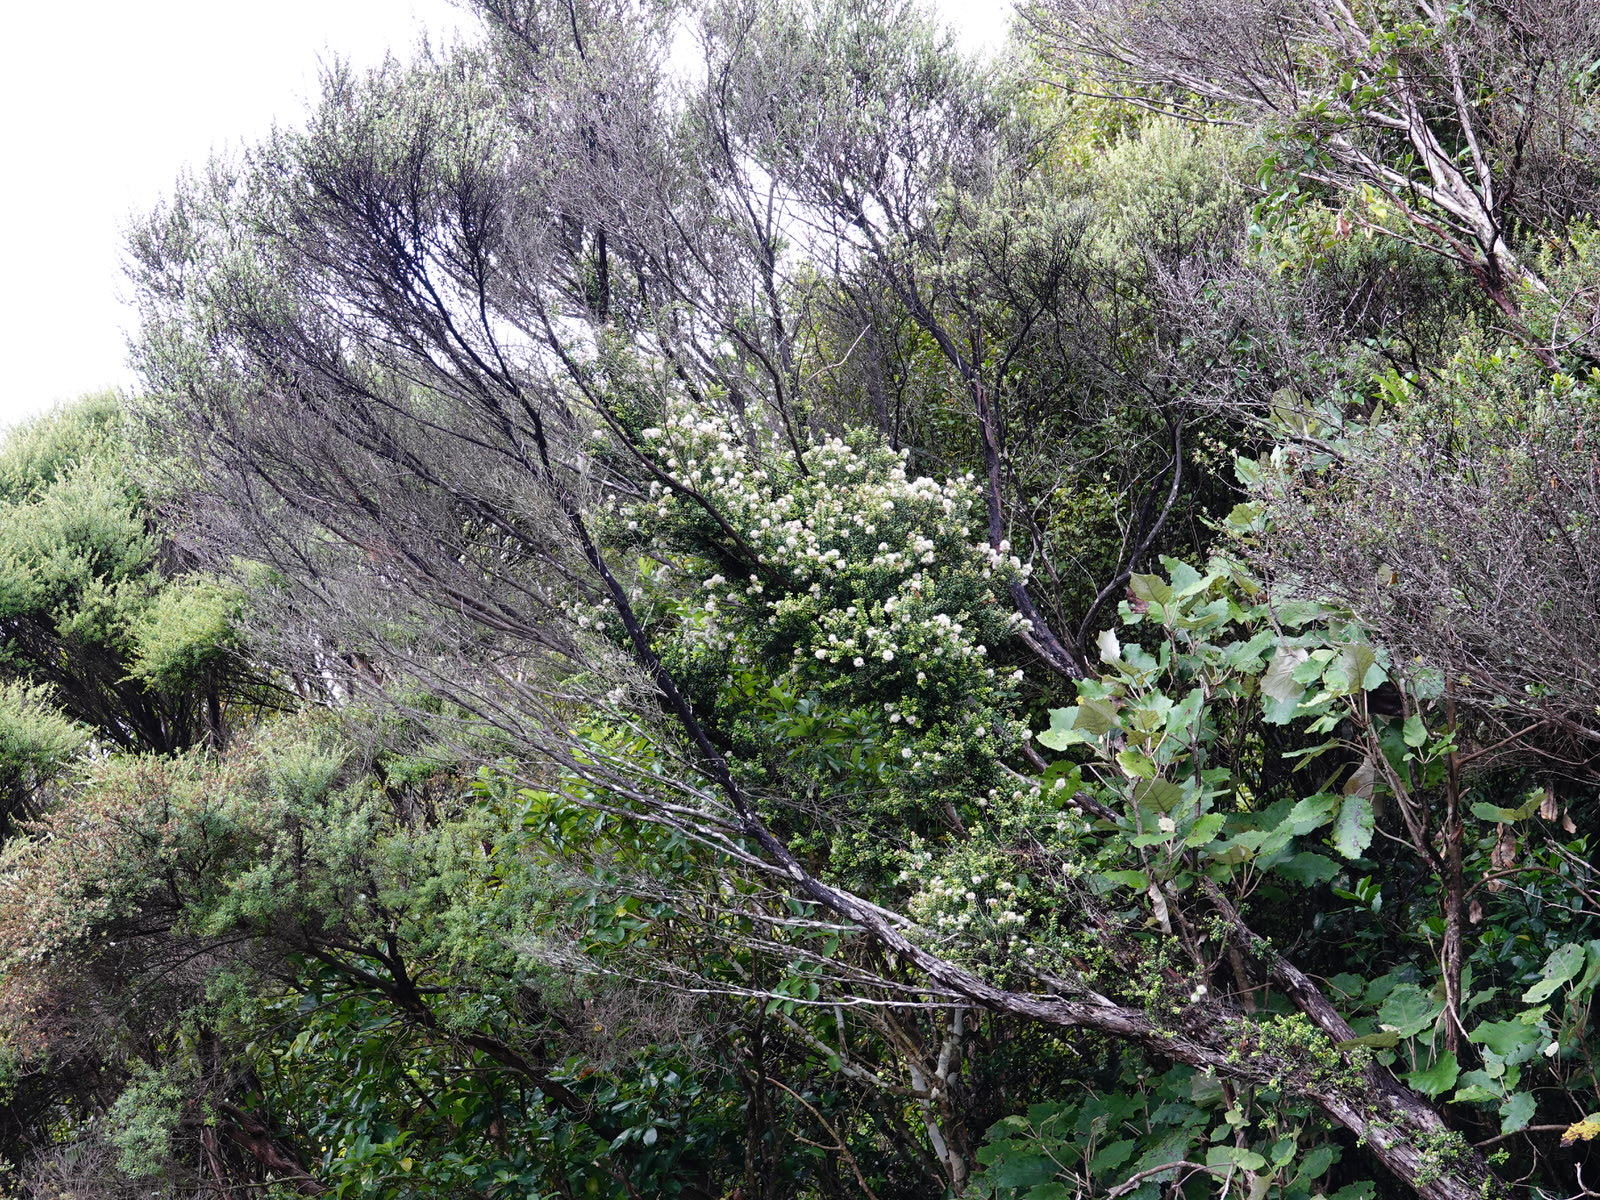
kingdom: Plantae
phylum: Tracheophyta
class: Magnoliopsida
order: Myrtales
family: Myrtaceae
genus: Metrosideros
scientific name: Metrosideros perforata
